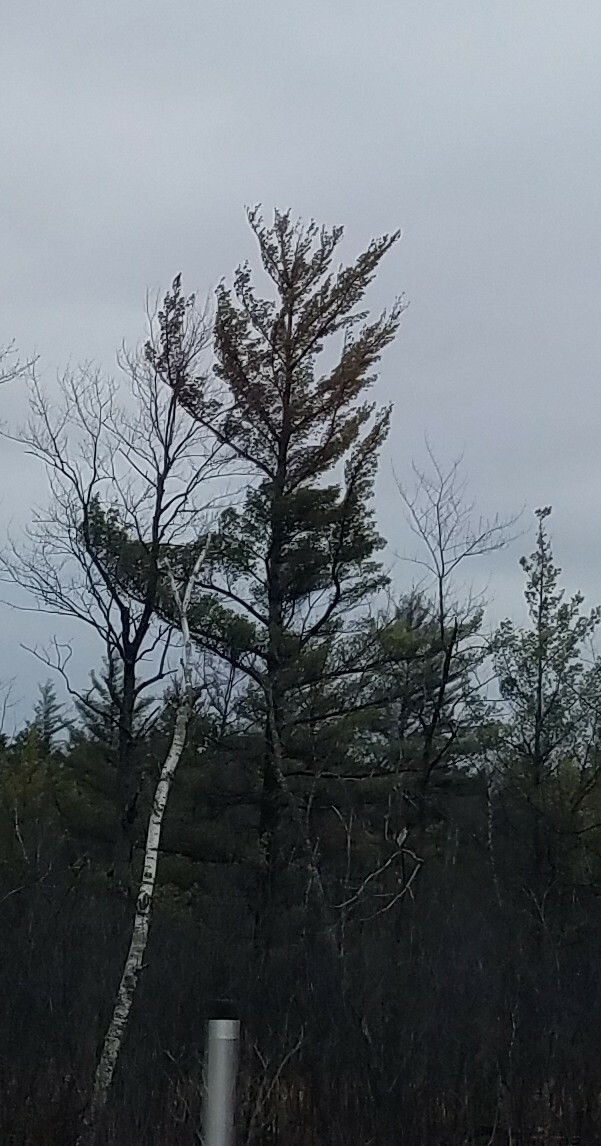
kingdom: Plantae
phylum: Tracheophyta
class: Pinopsida
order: Pinales
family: Pinaceae
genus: Pinus
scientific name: Pinus strobus
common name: Weymouth pine
